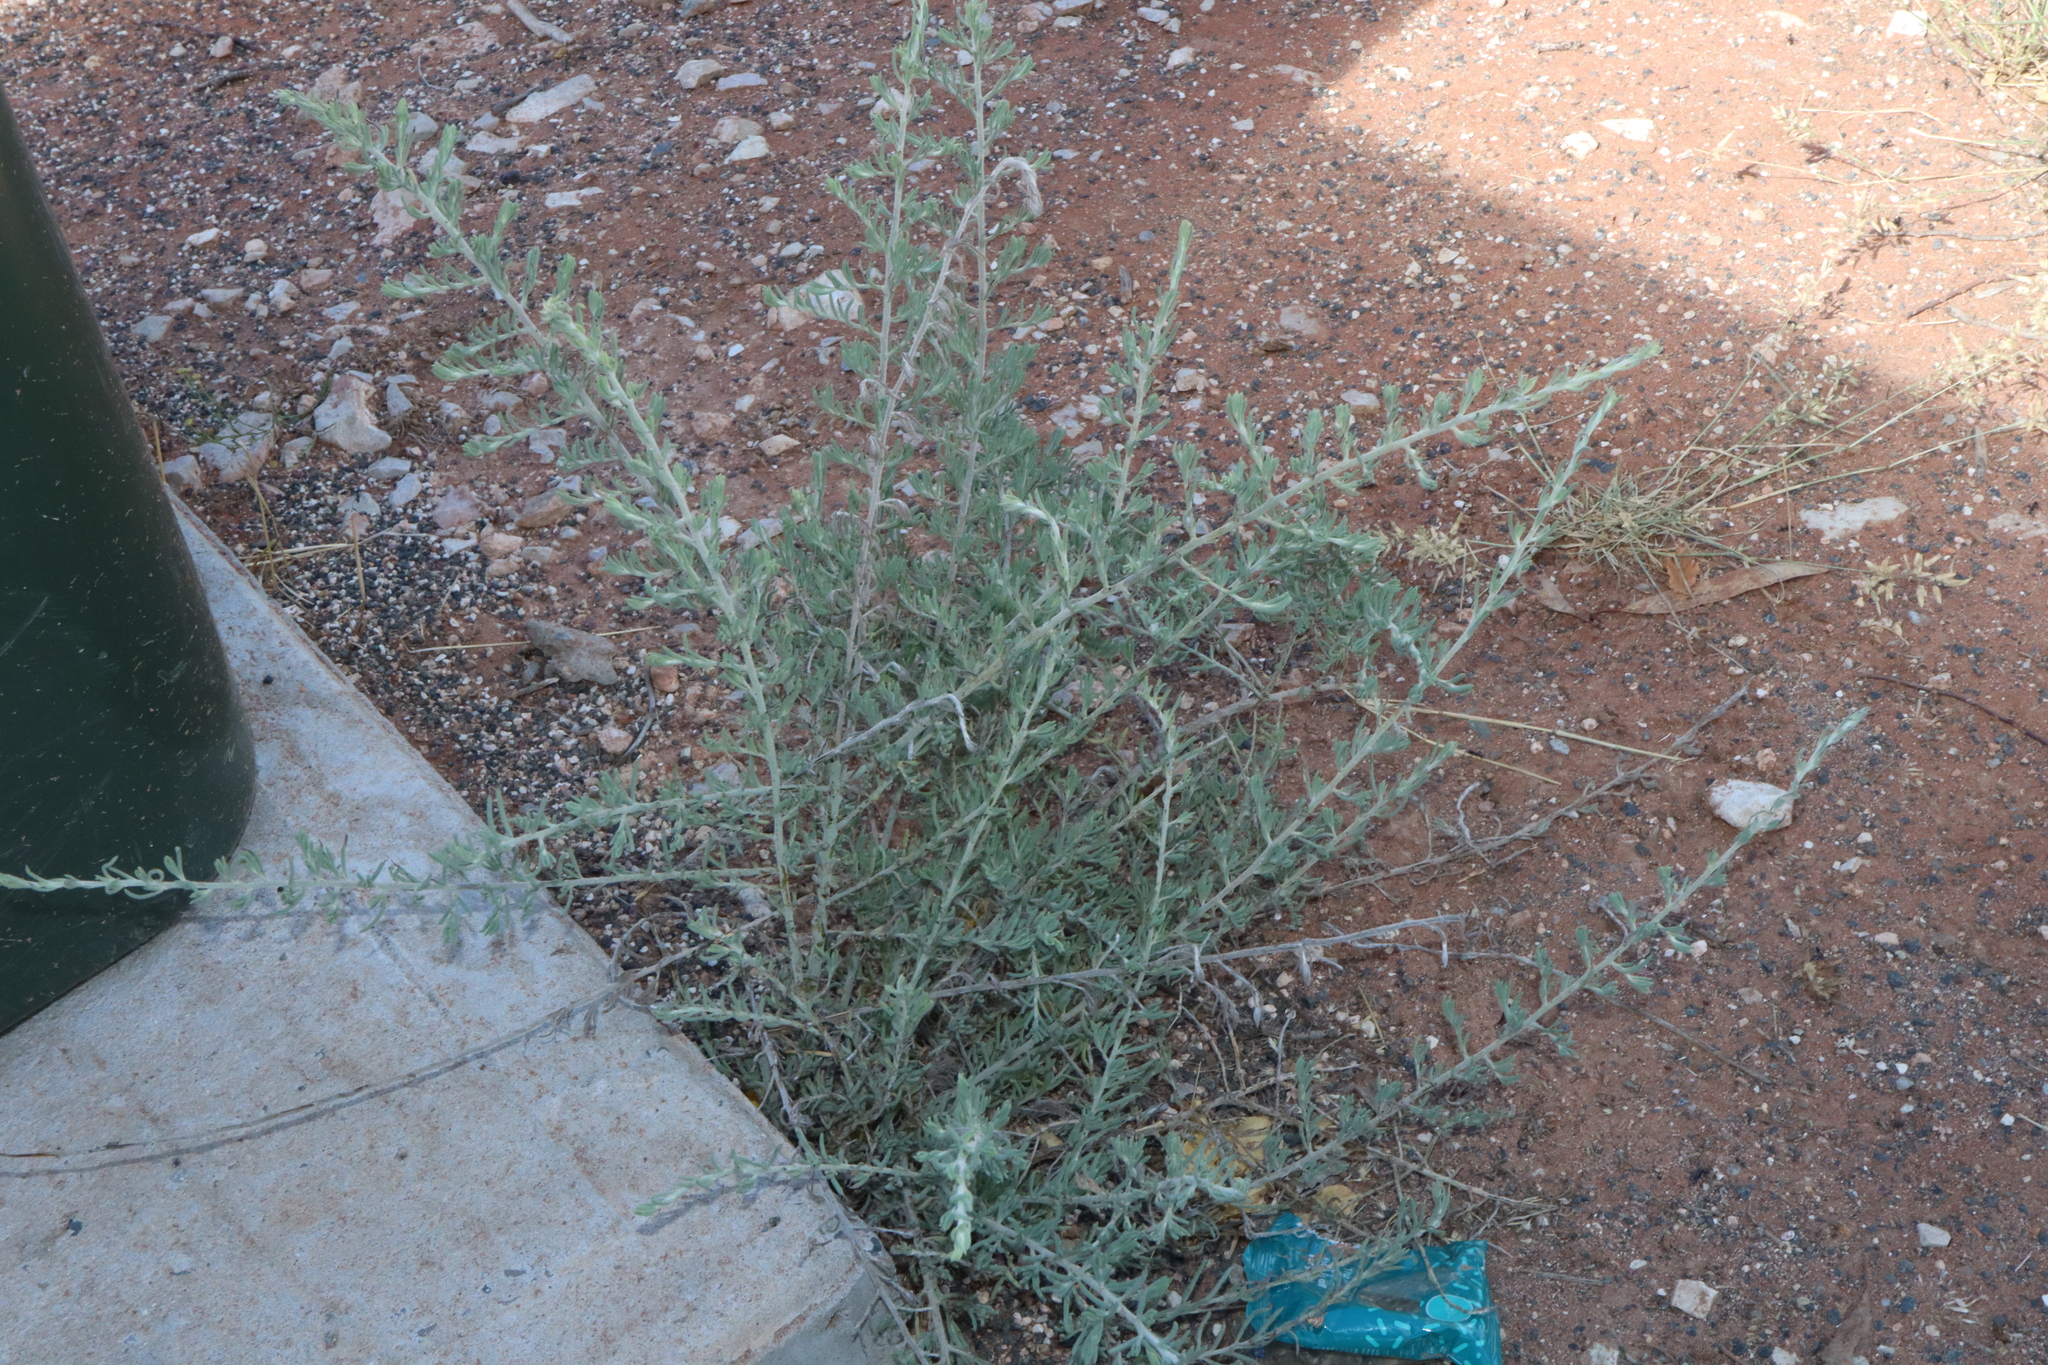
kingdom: Plantae
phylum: Tracheophyta
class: Magnoliopsida
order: Caryophyllales
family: Amaranthaceae
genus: Enchylaena
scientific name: Enchylaena tomentosa
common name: Ruby saltbush
